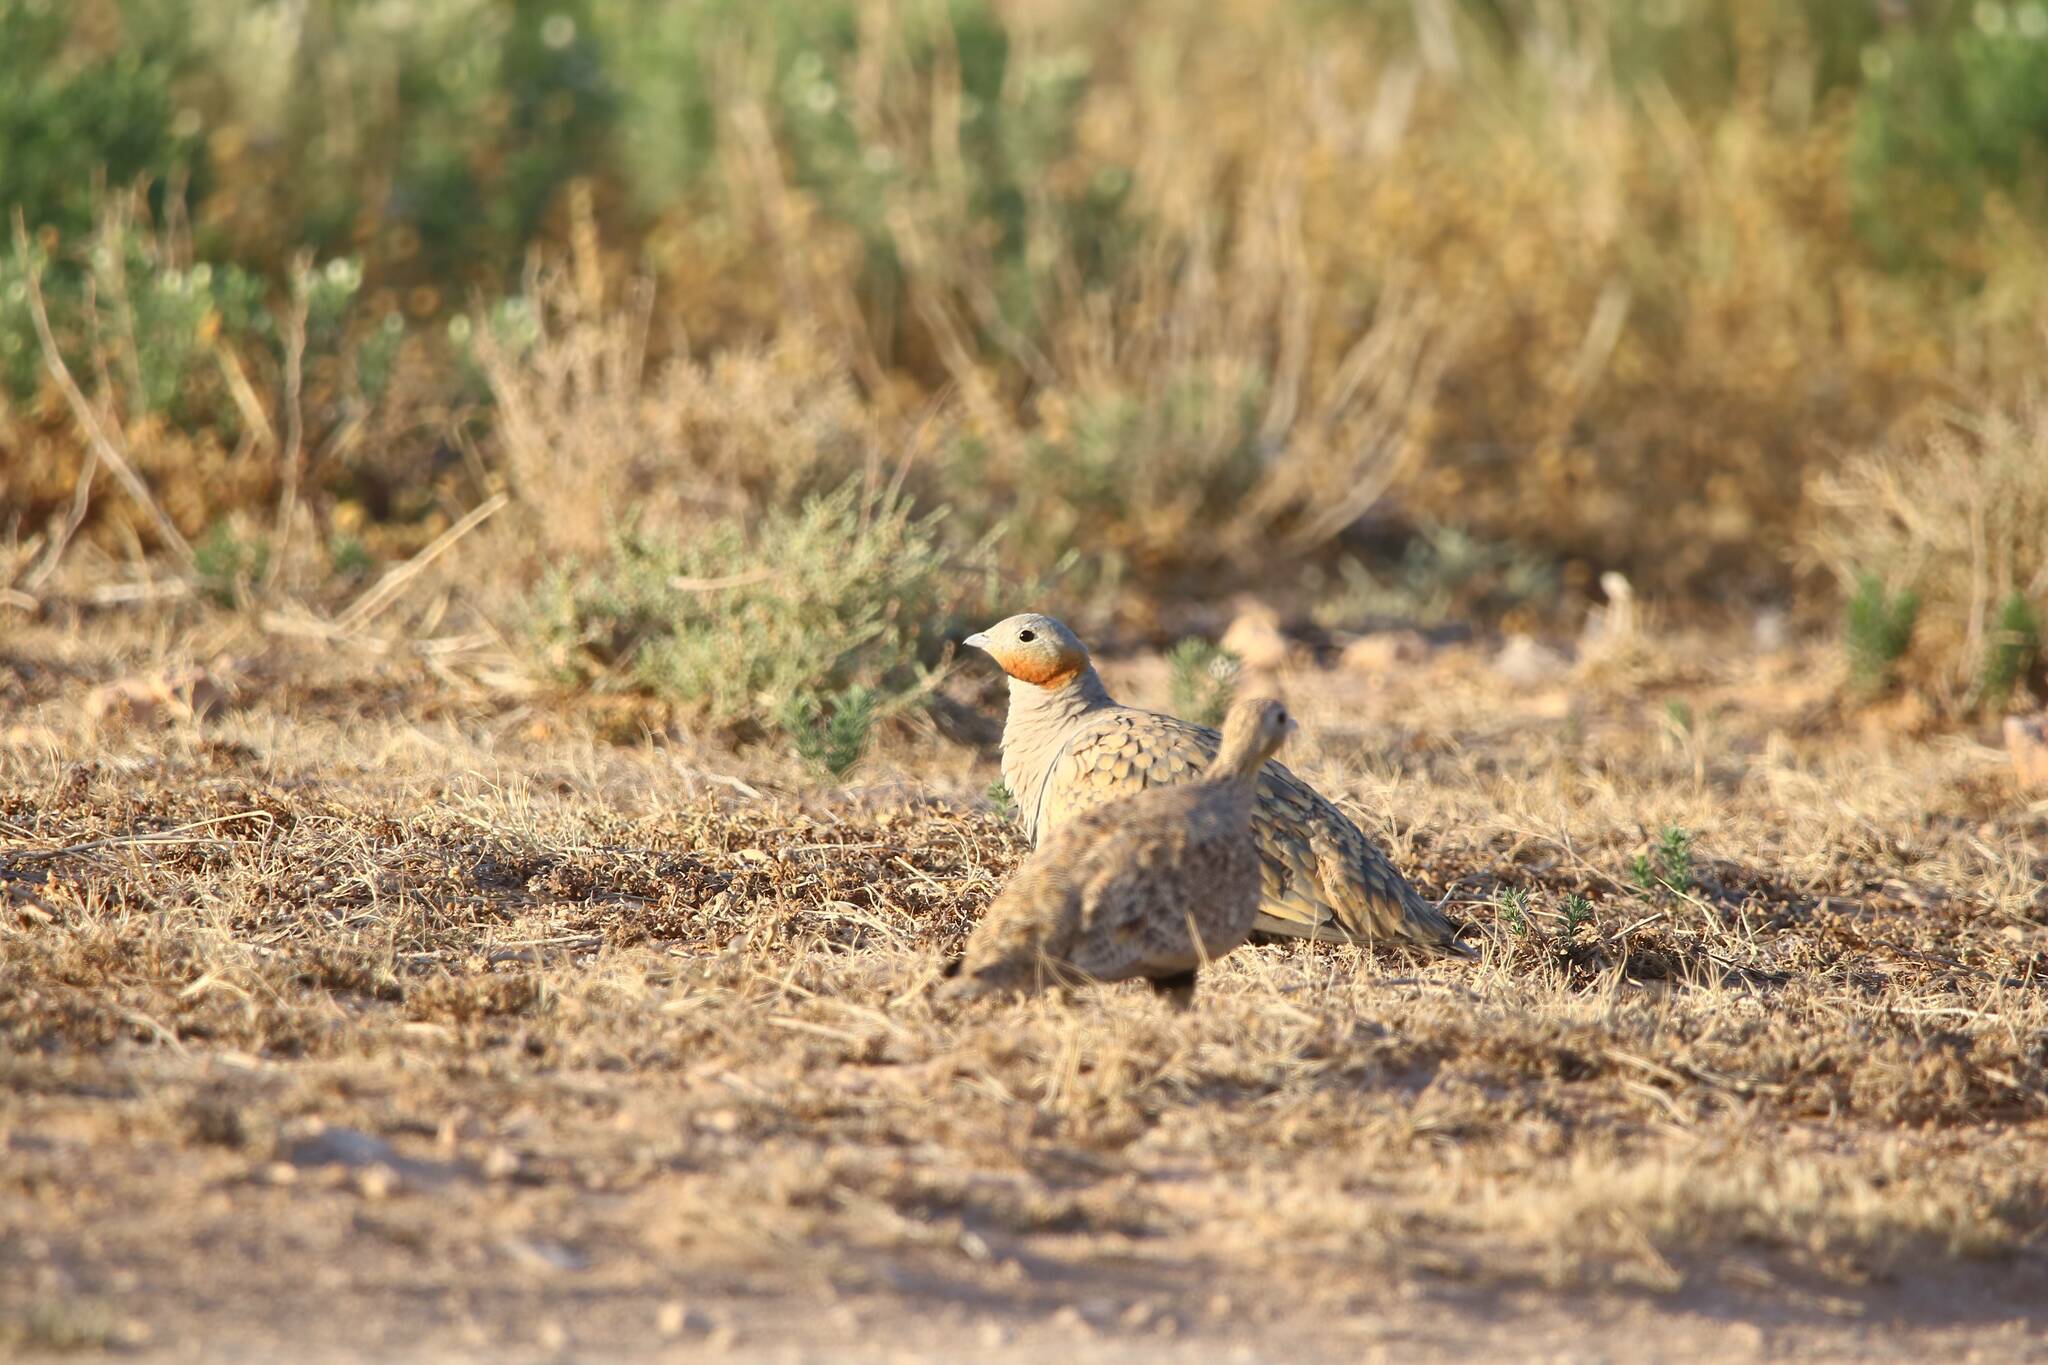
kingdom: Animalia
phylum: Chordata
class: Aves
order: Pteroclidiformes
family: Pteroclididae
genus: Pterocles
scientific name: Pterocles orientalis
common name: Black-bellied sandgrouse
